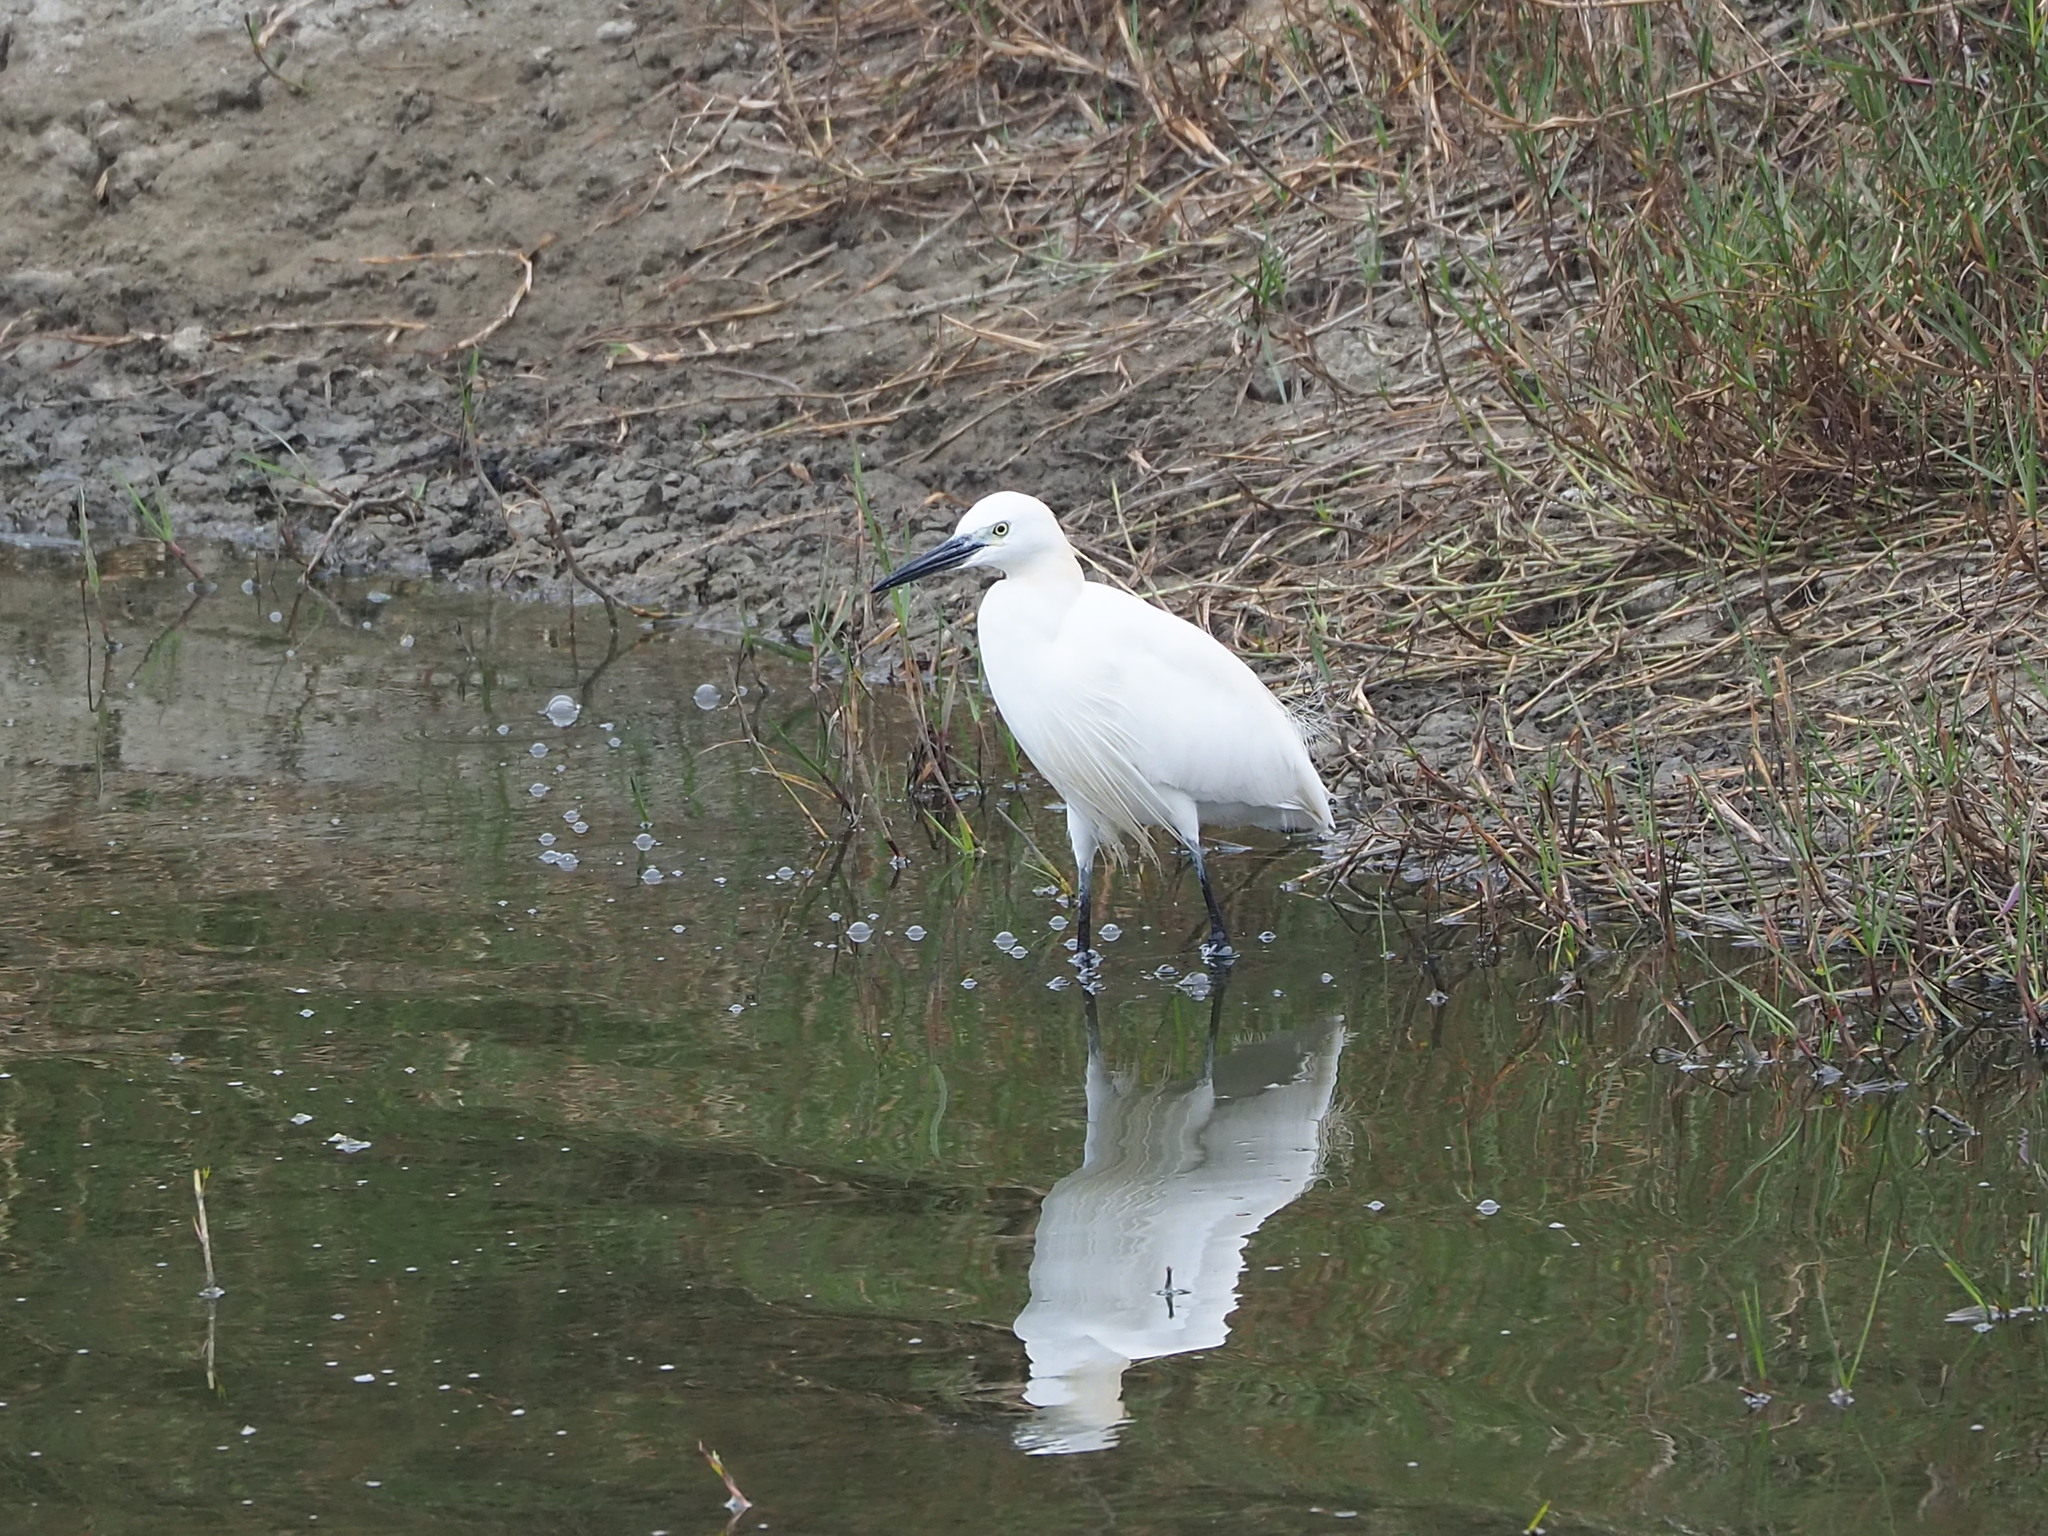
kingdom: Animalia
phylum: Chordata
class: Aves
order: Pelecaniformes
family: Ardeidae
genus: Egretta
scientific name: Egretta garzetta
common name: Little egret
